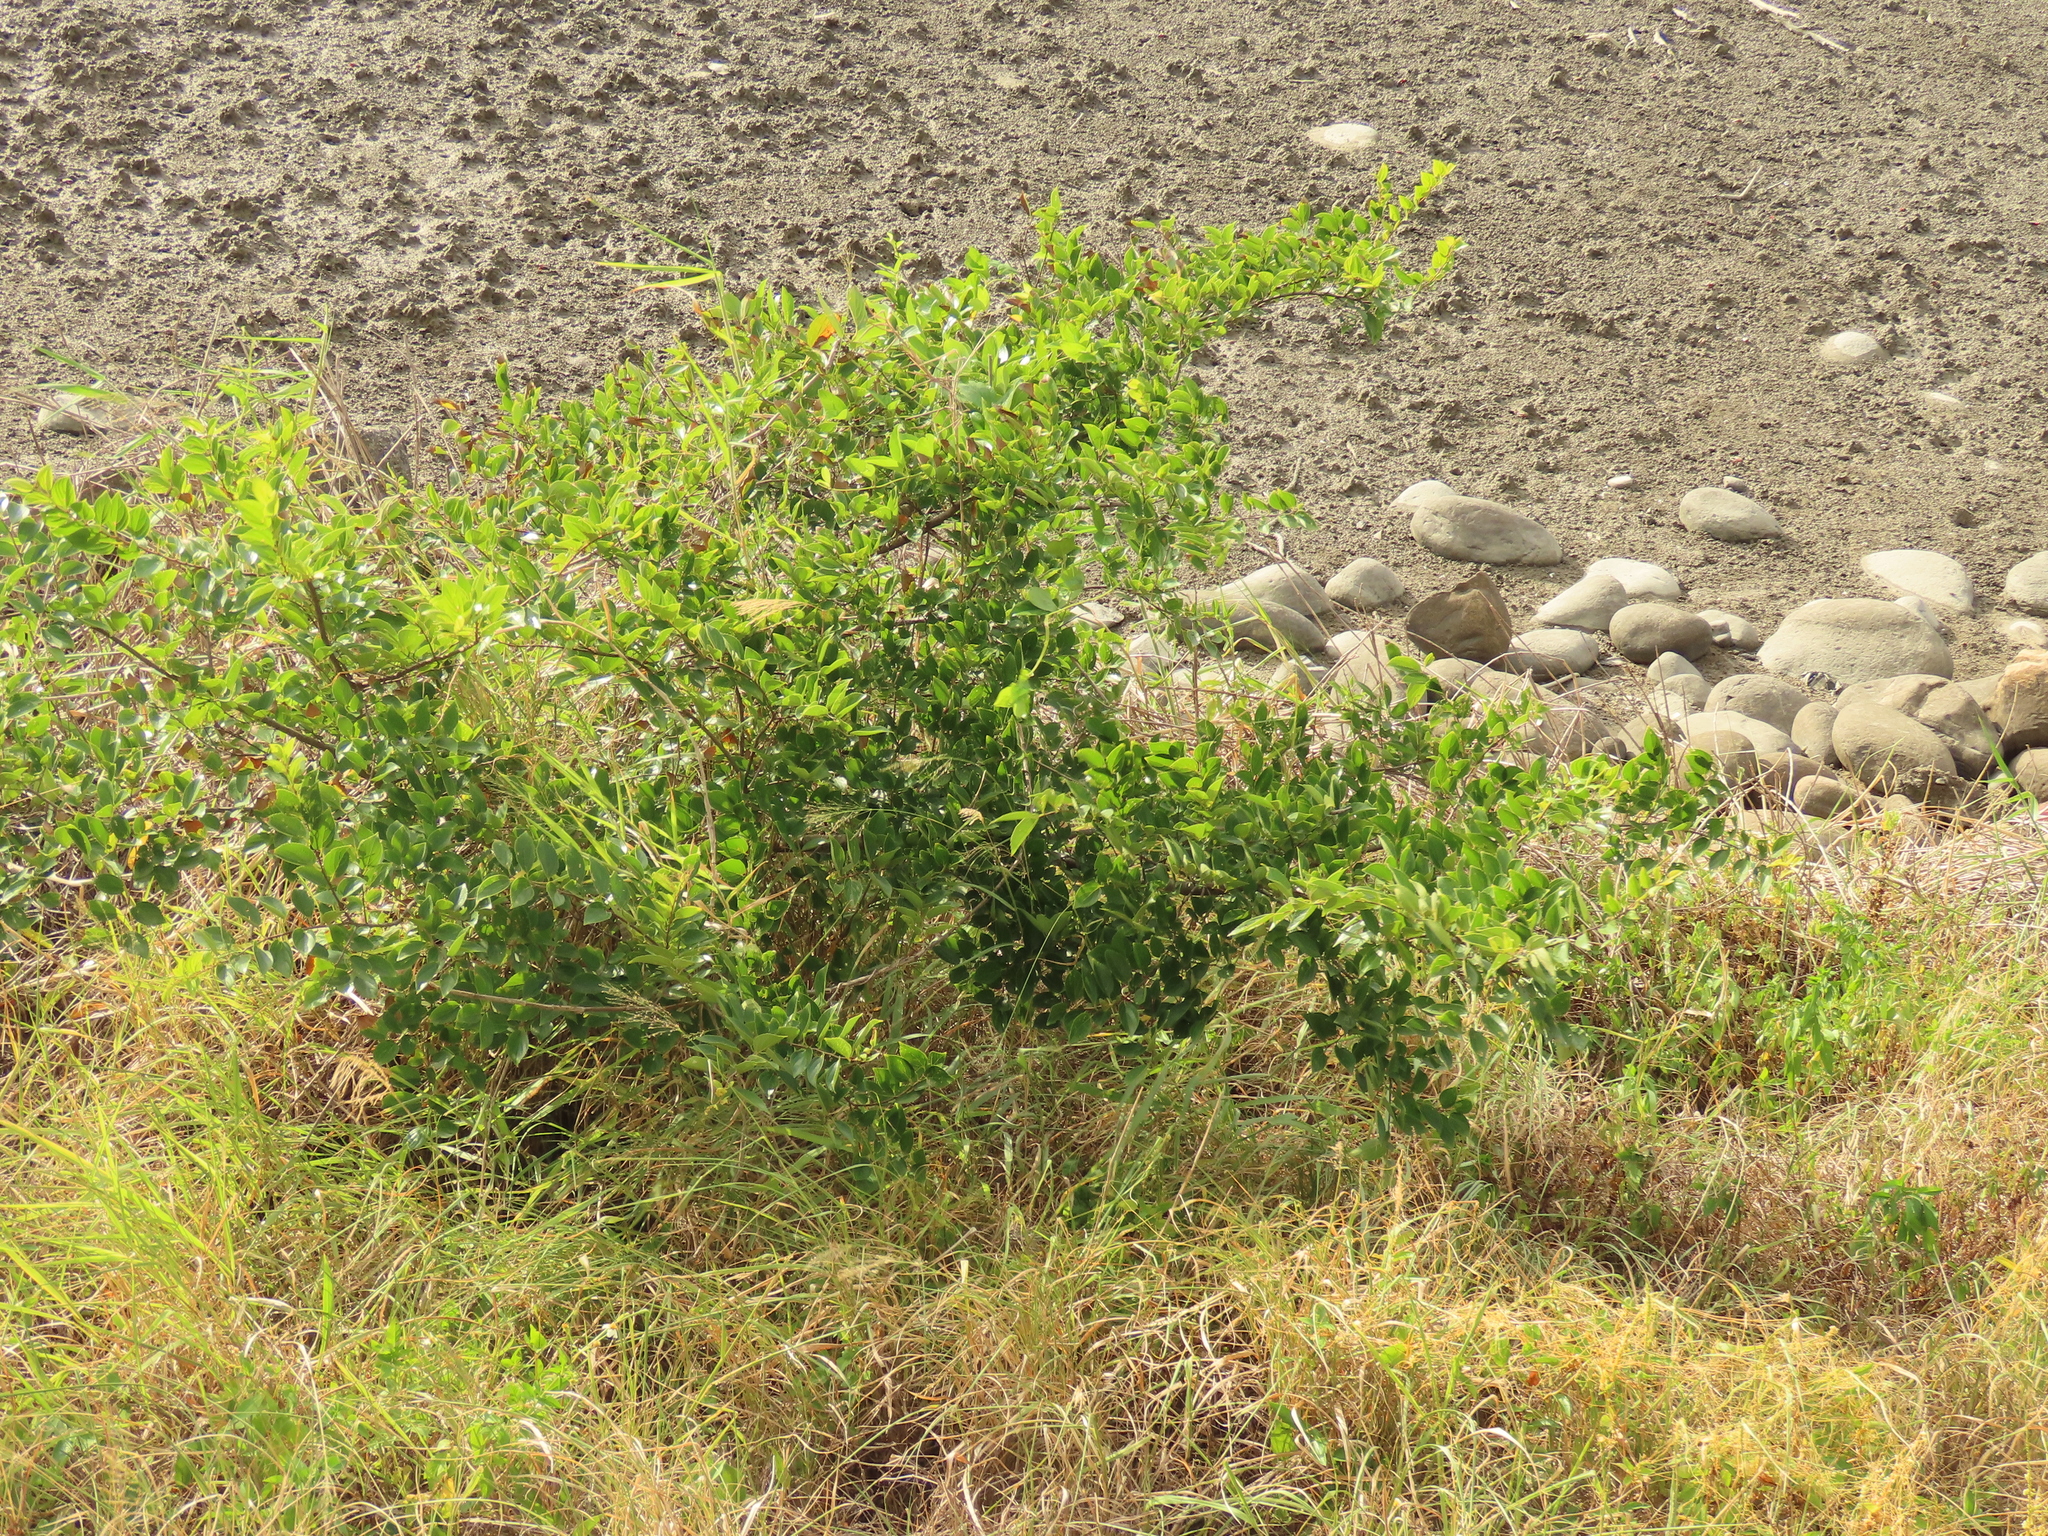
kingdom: Plantae
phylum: Tracheophyta
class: Magnoliopsida
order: Rosales
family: Cannabaceae
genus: Celtis
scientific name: Celtis sinensis
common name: Chinese hackberry
